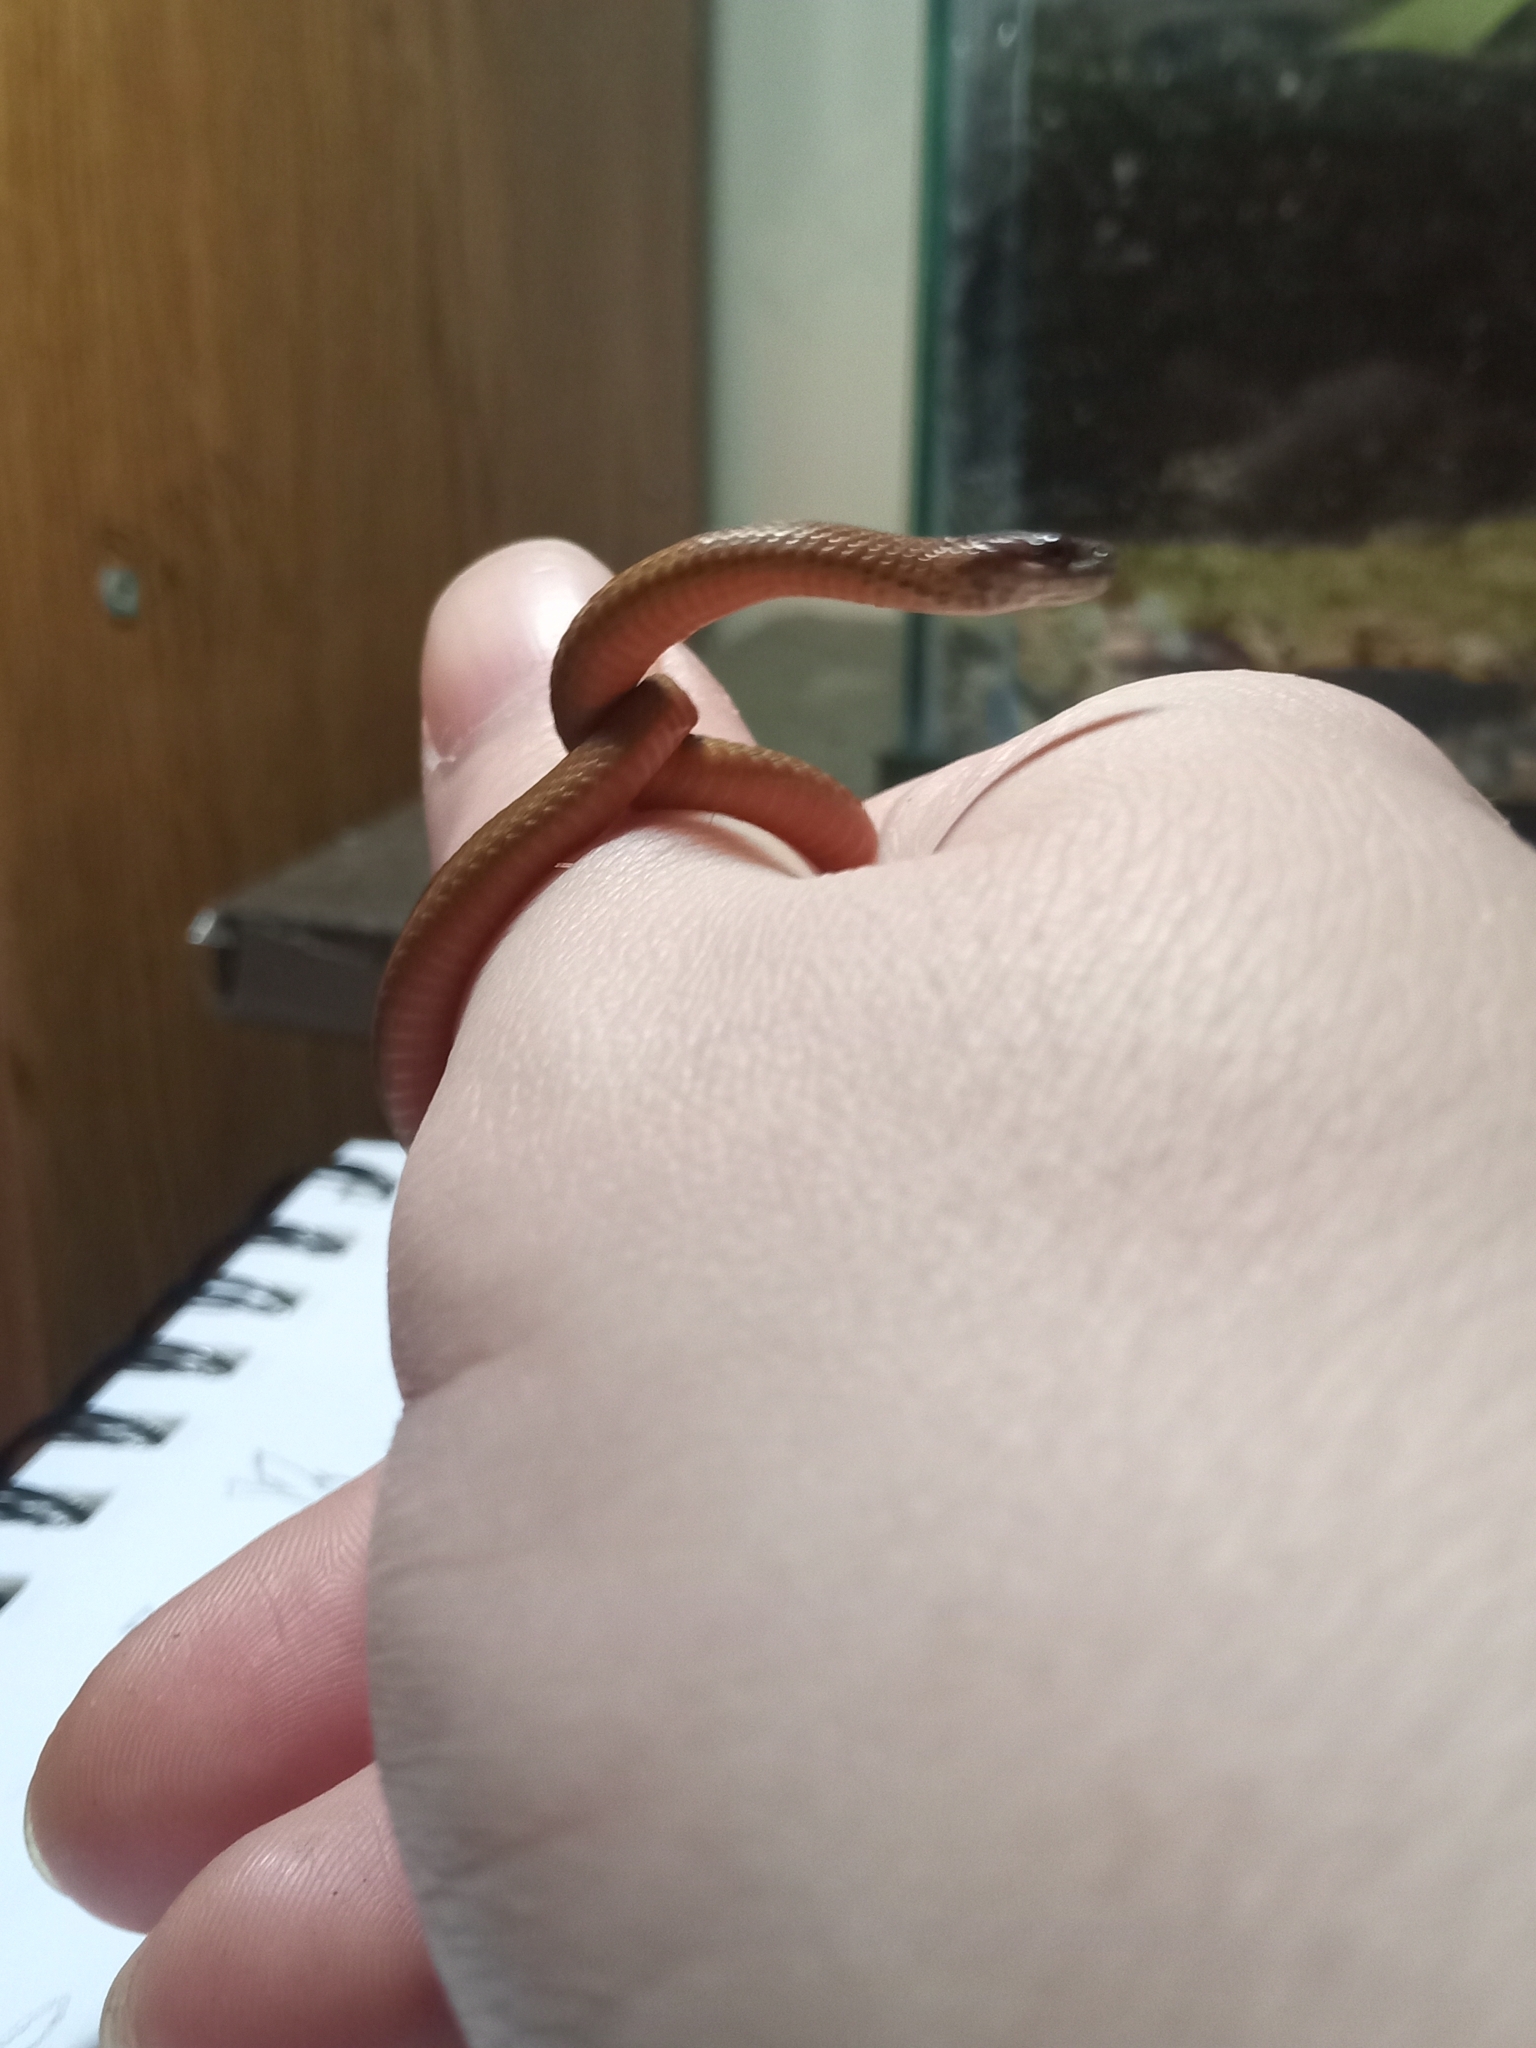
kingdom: Animalia
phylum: Chordata
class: Squamata
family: Colubridae
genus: Storeria
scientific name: Storeria occipitomaculata
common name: Redbelly snake
